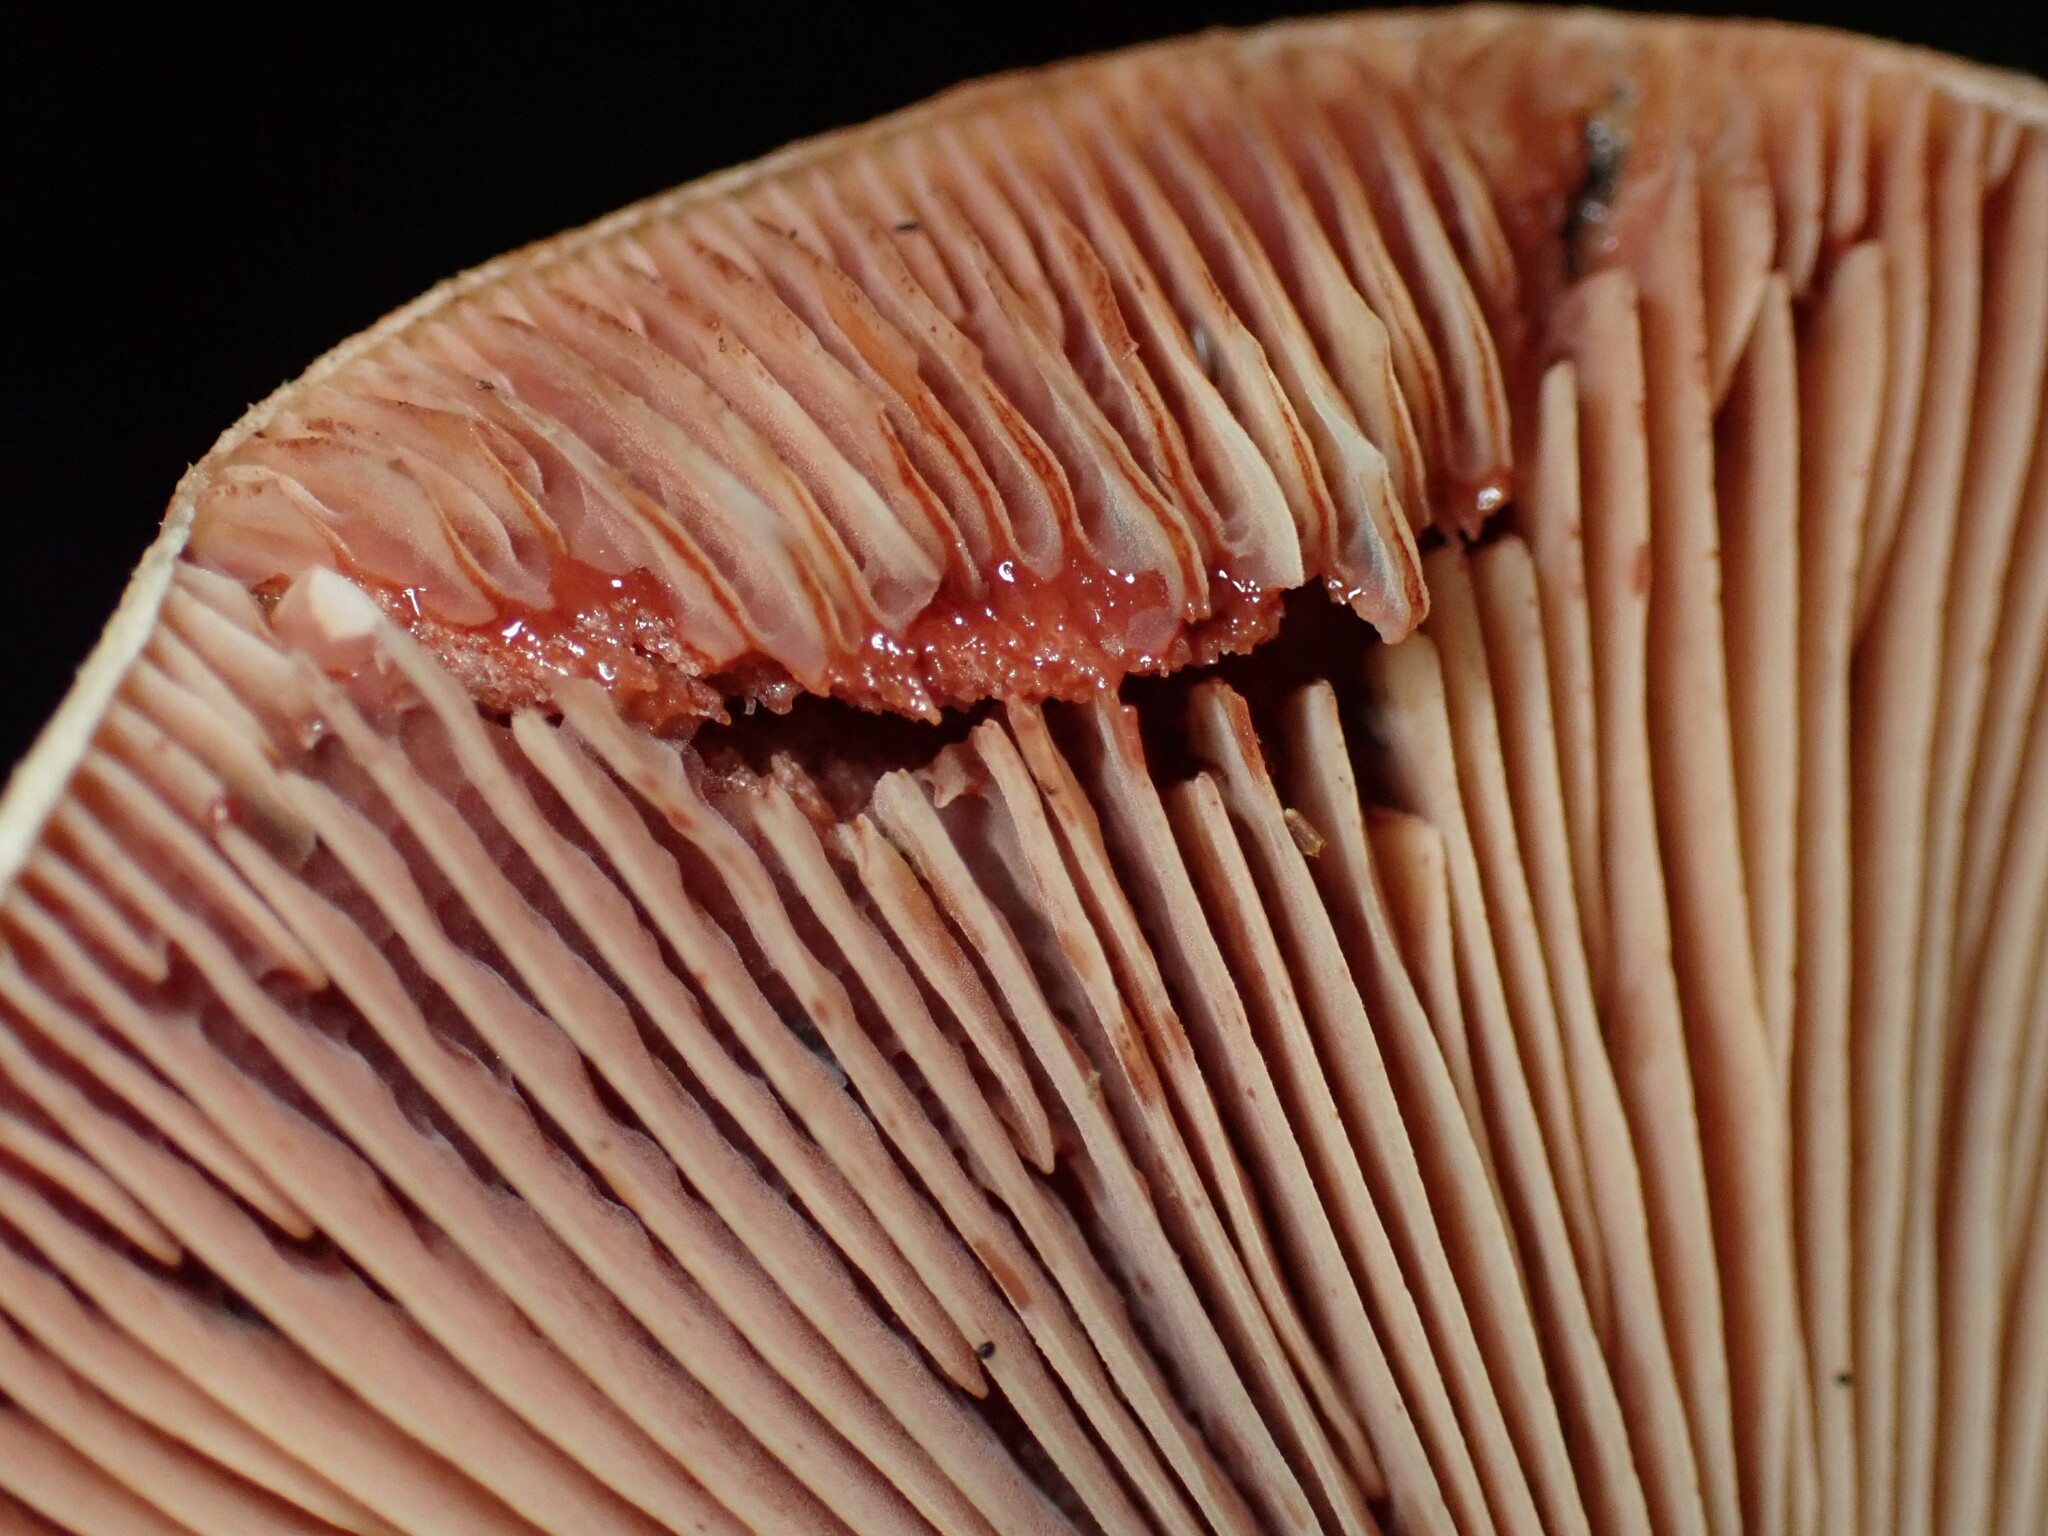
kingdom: Fungi
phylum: Basidiomycota
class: Agaricomycetes
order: Russulales
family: Russulaceae
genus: Lactarius
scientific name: Lactarius rubrilacteus
